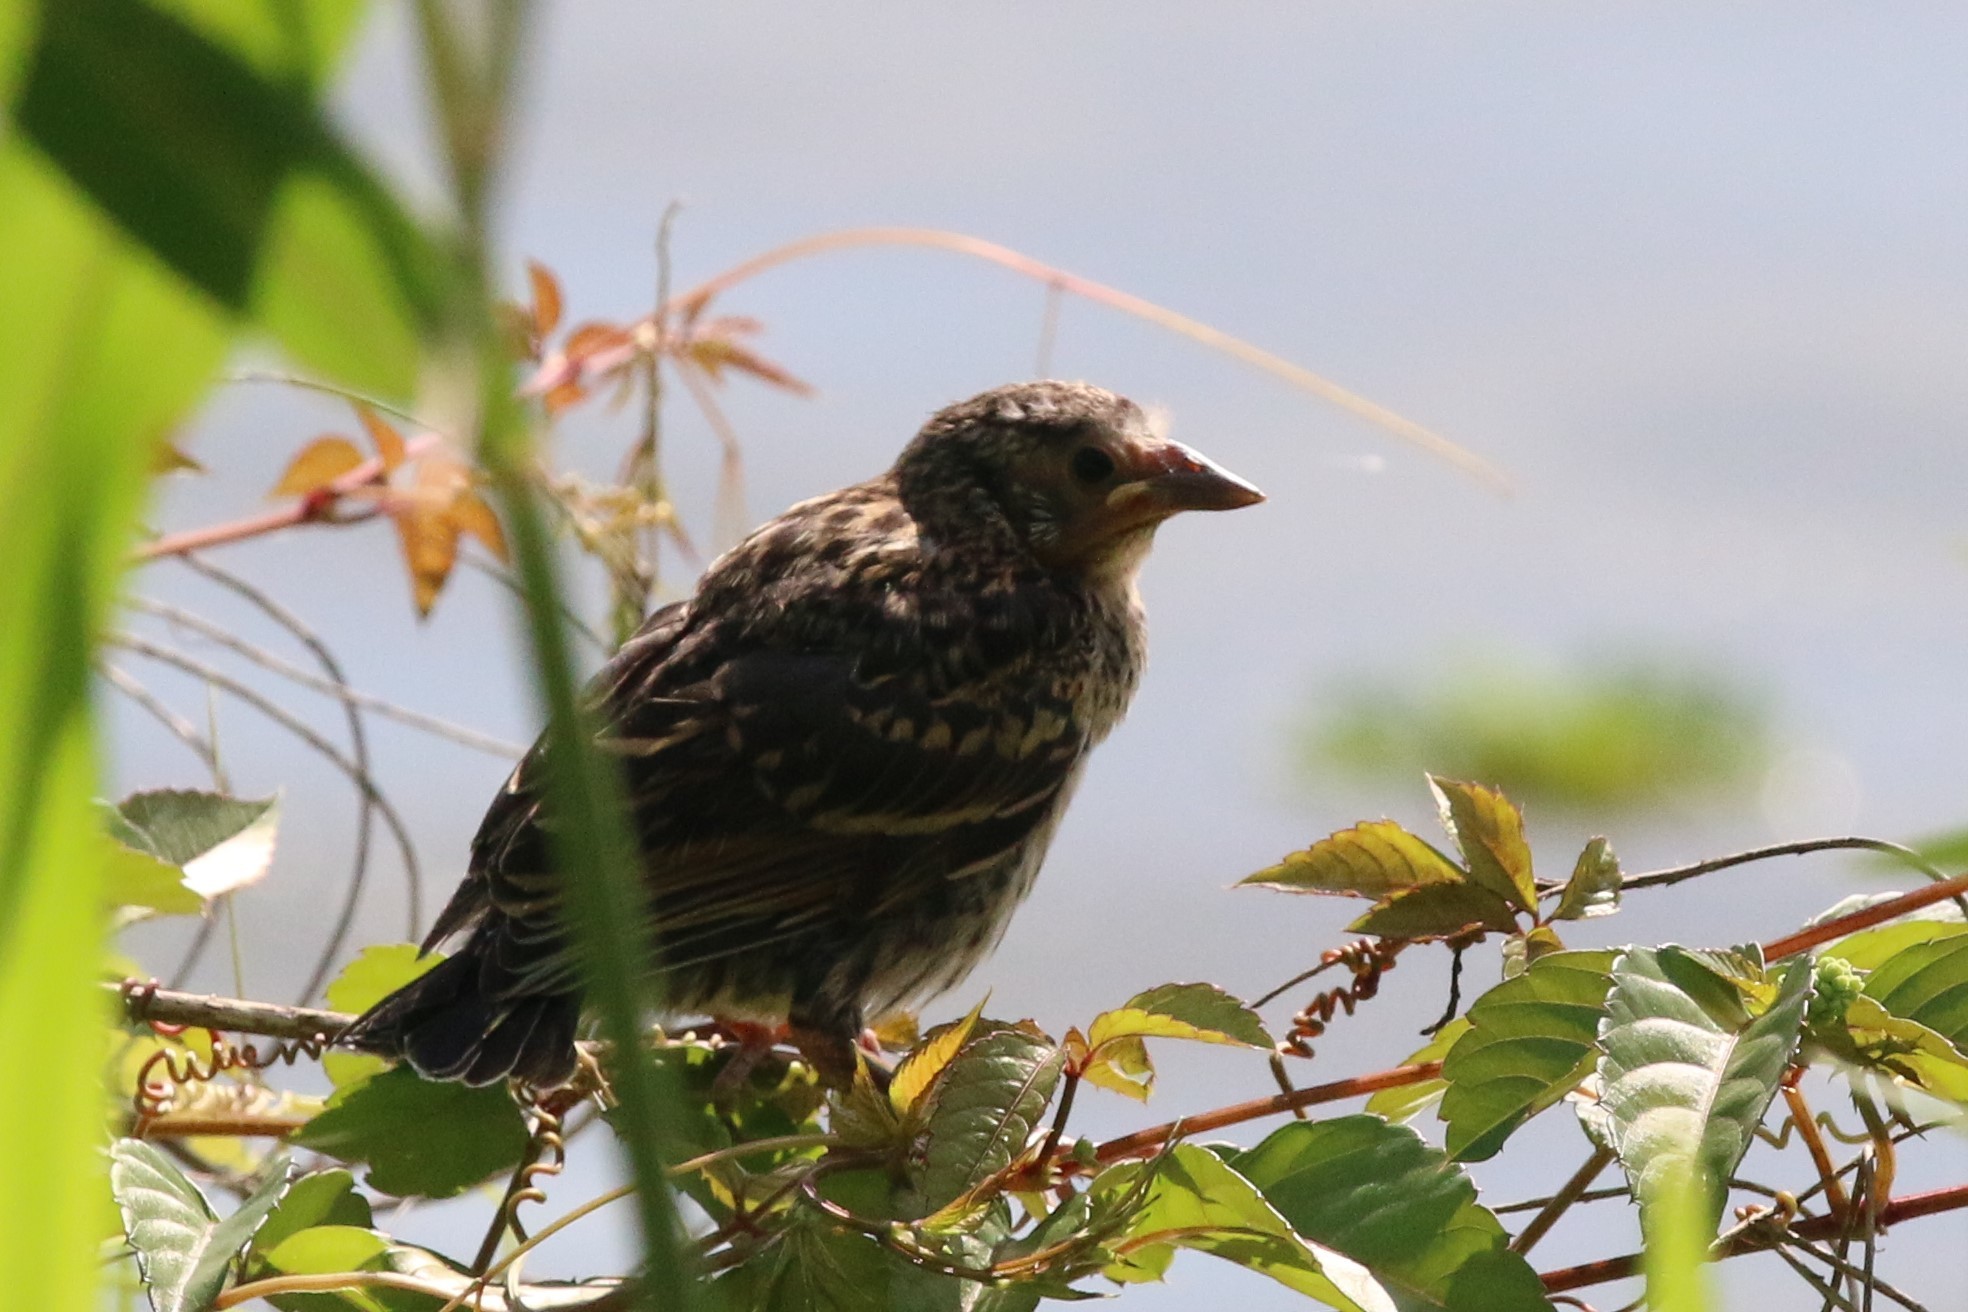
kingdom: Animalia
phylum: Chordata
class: Aves
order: Passeriformes
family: Icteridae
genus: Agelaius
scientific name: Agelaius phoeniceus
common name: Red-winged blackbird
